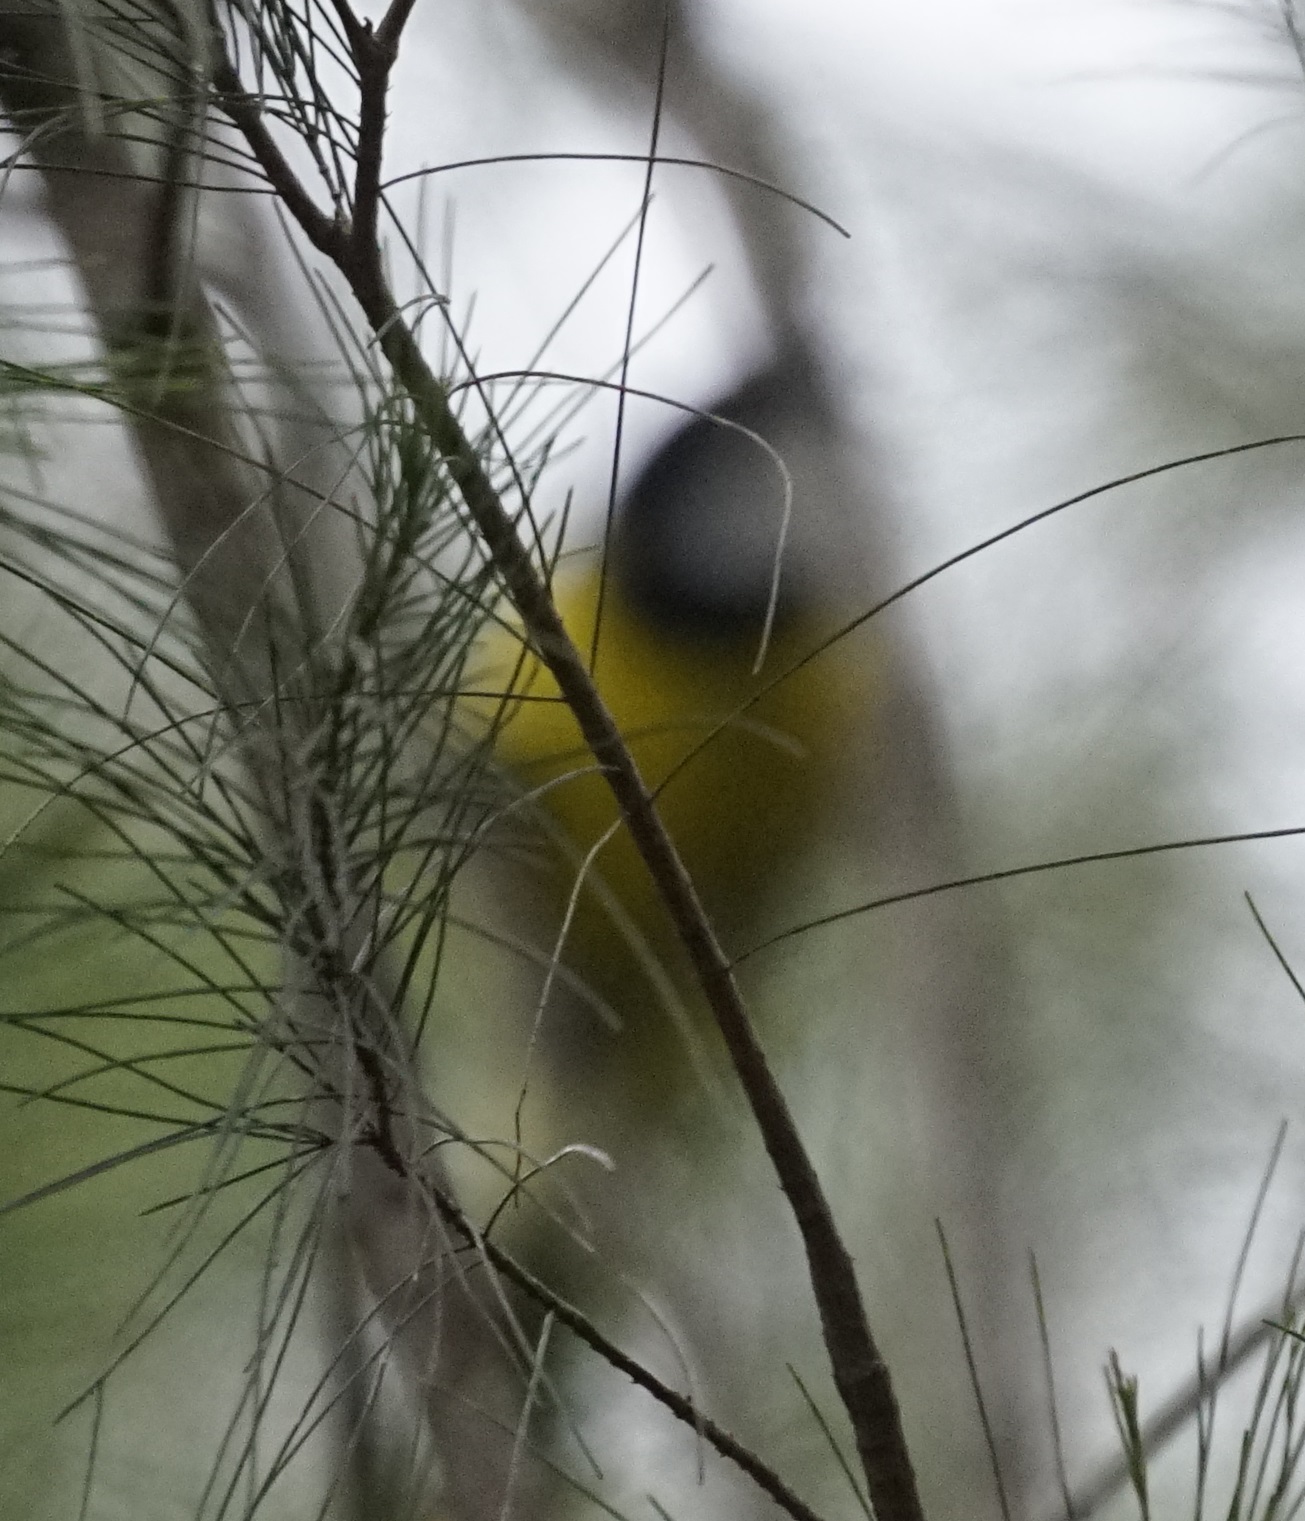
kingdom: Animalia
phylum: Chordata
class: Aves
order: Passeriformes
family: Pachycephalidae
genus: Pachycephala
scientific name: Pachycephala pectoralis
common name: Australian golden whistler
